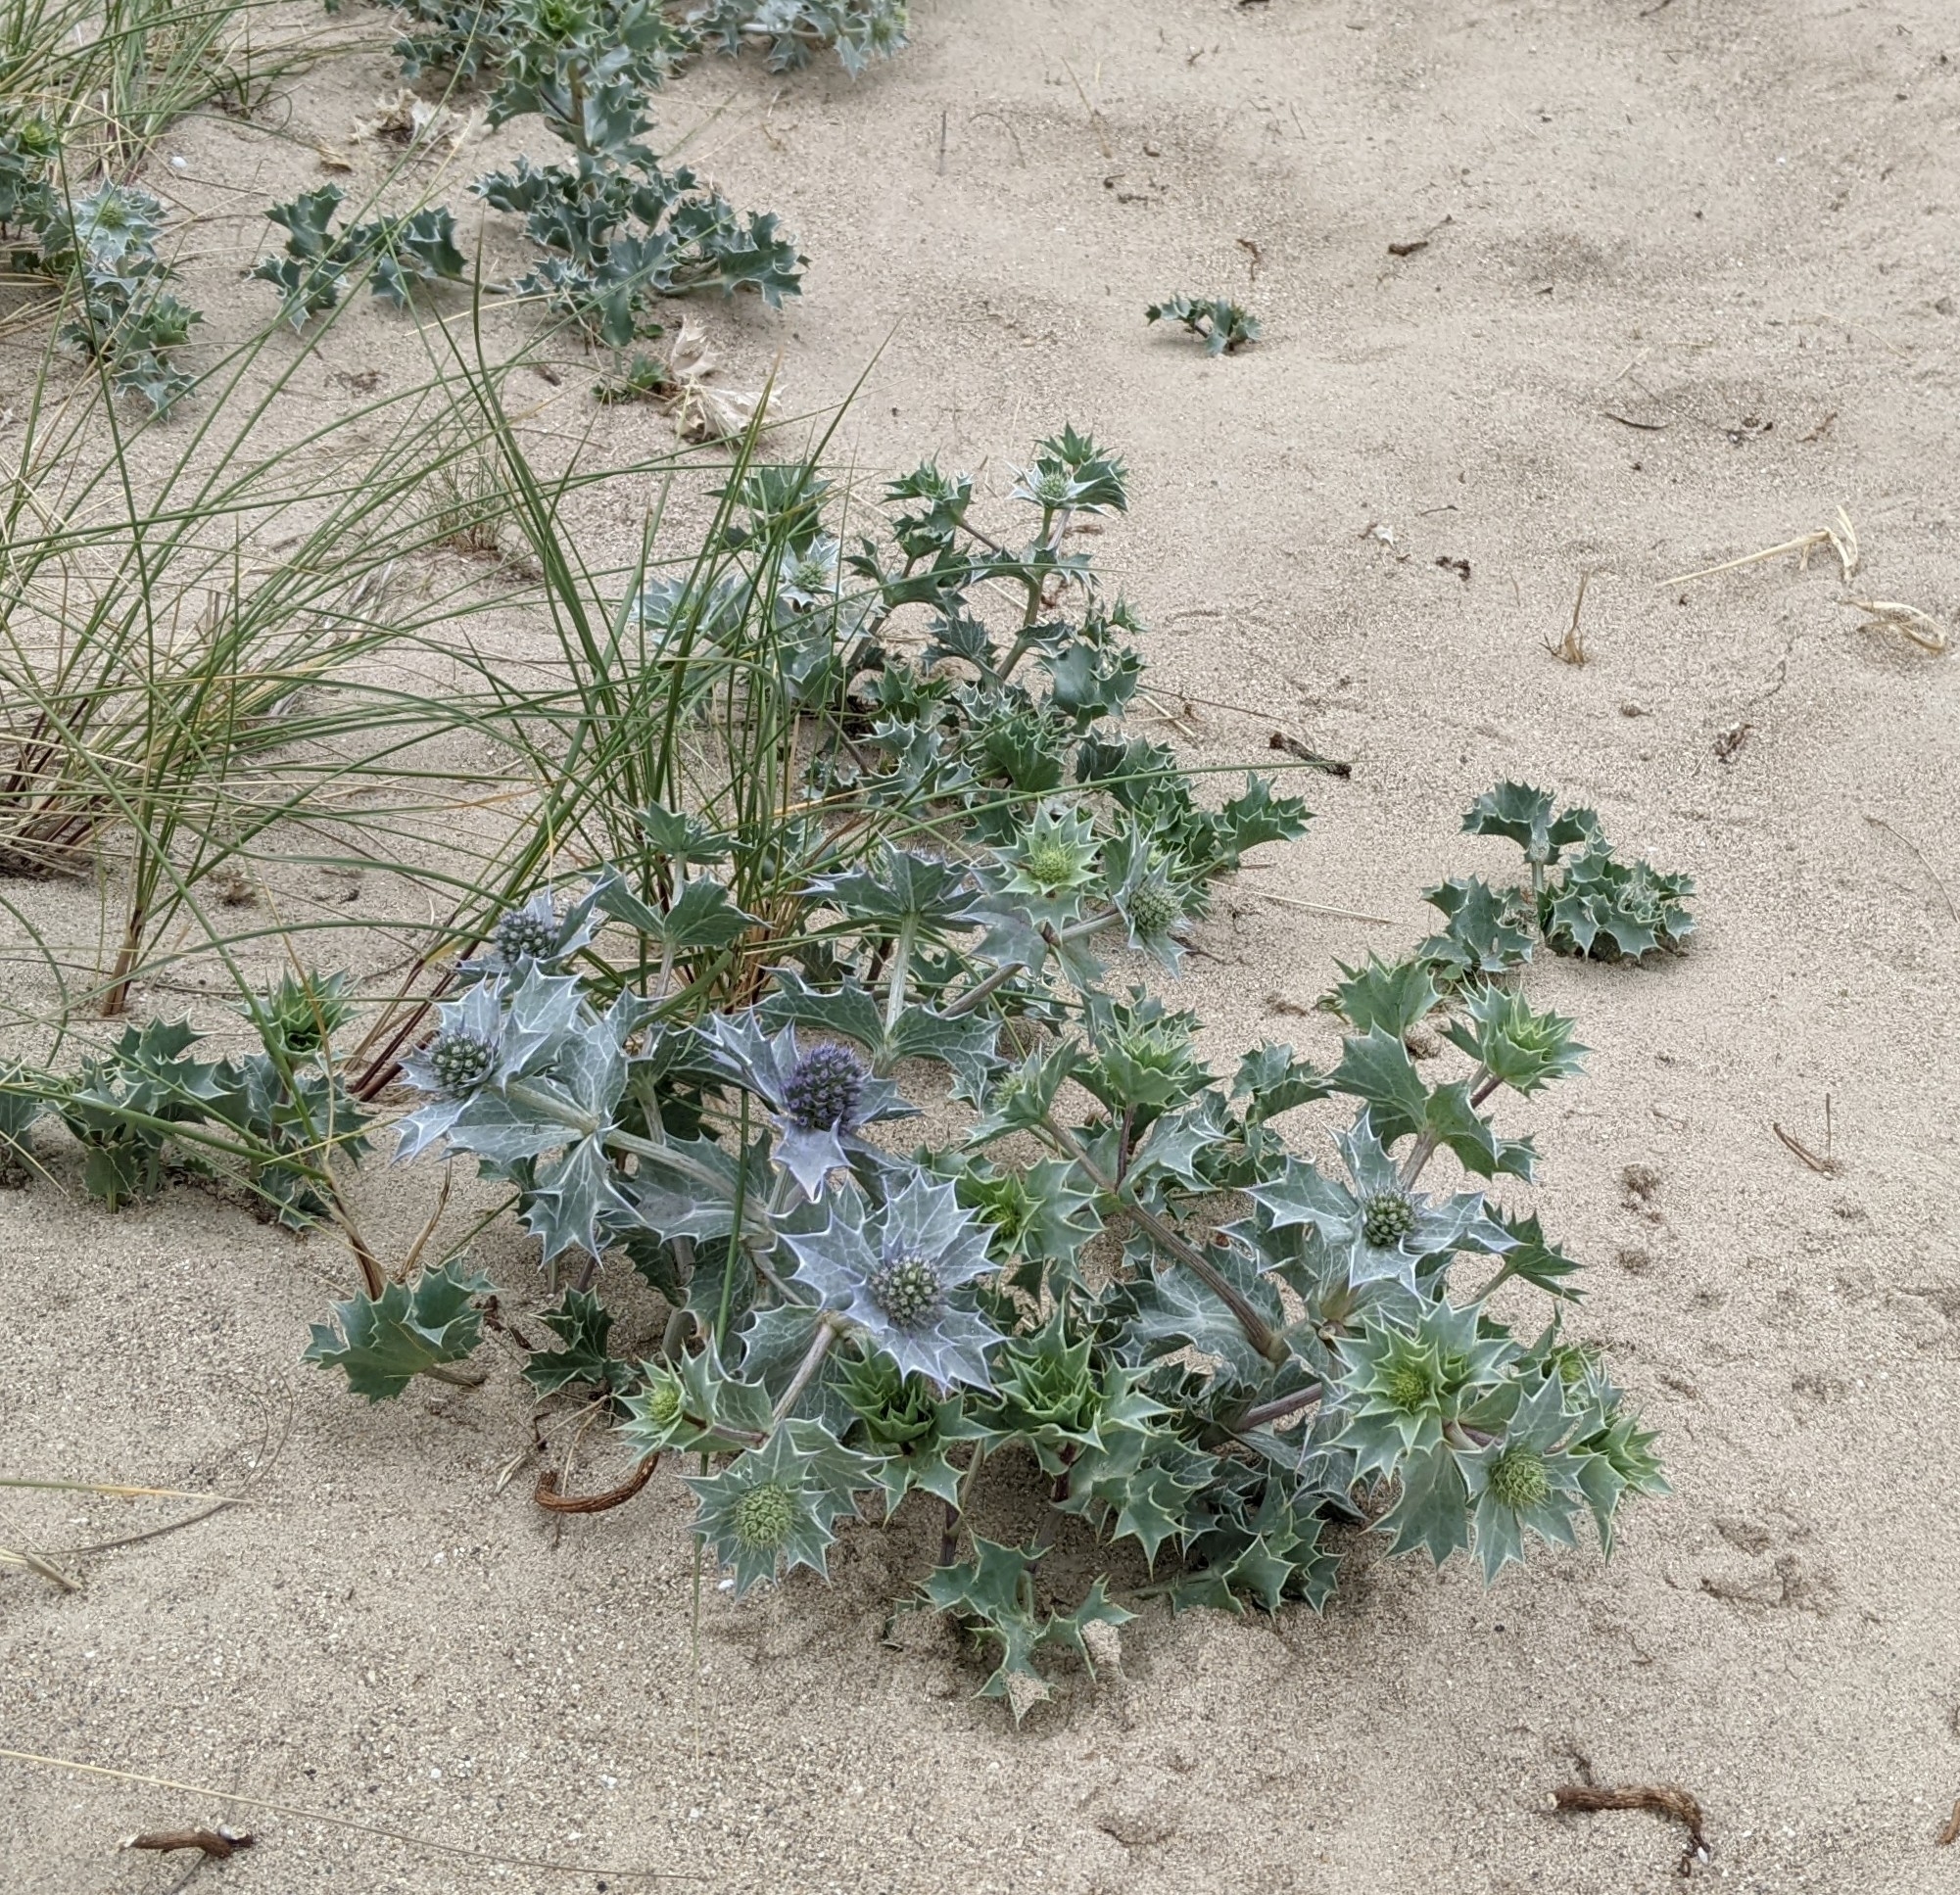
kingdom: Plantae
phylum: Tracheophyta
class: Magnoliopsida
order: Apiales
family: Apiaceae
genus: Eryngium
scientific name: Eryngium maritimum
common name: Sea-holly
